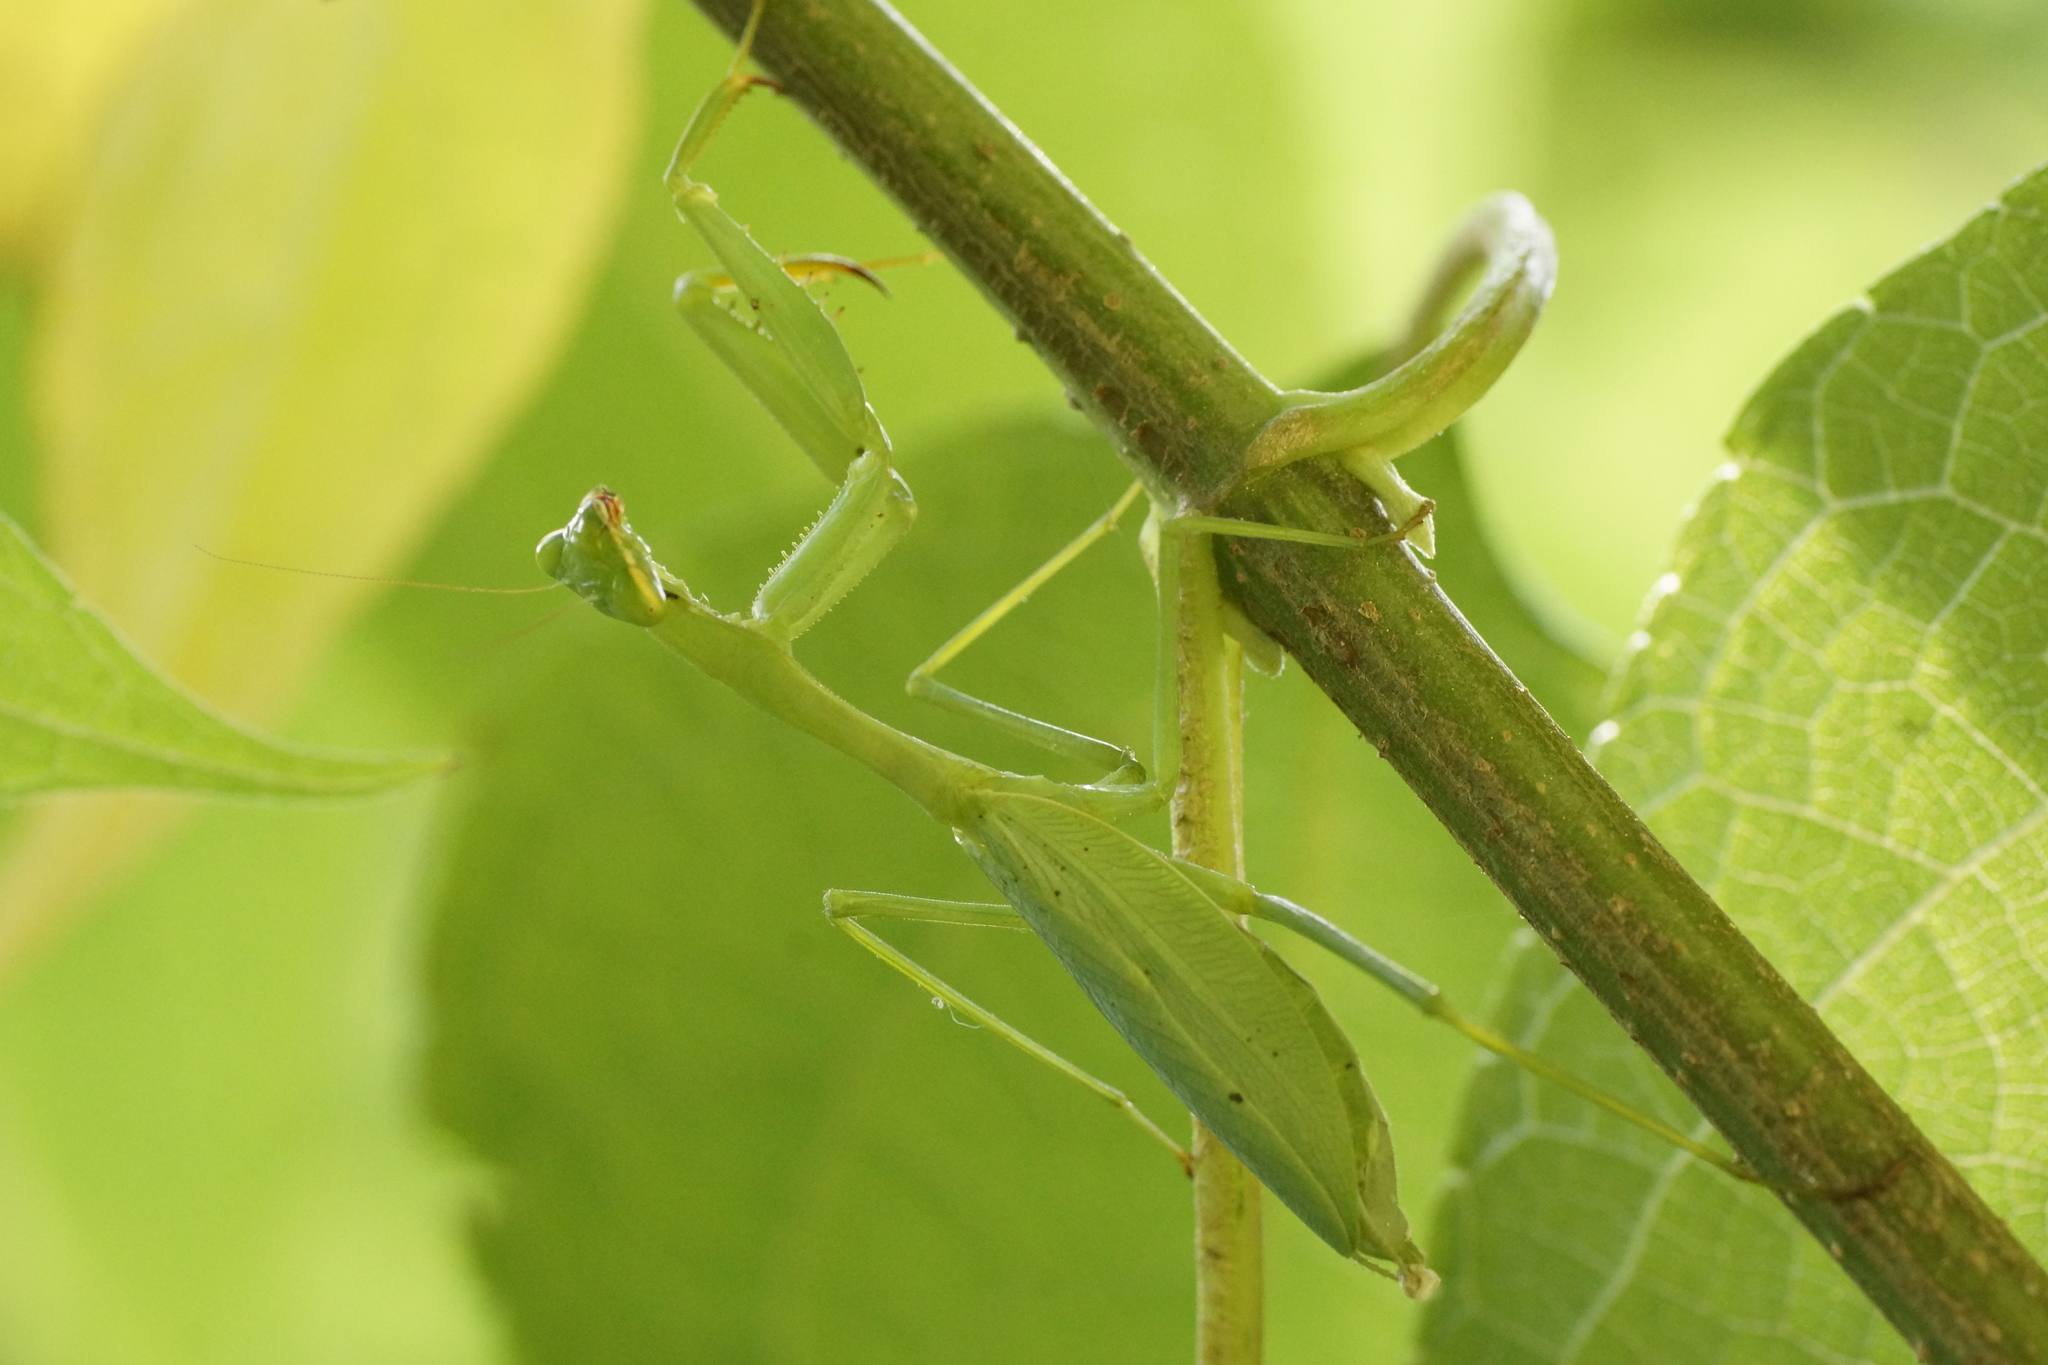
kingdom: Animalia
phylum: Arthropoda
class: Insecta
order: Mantodea
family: Miomantidae
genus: Miomantis
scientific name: Miomantis caffra
